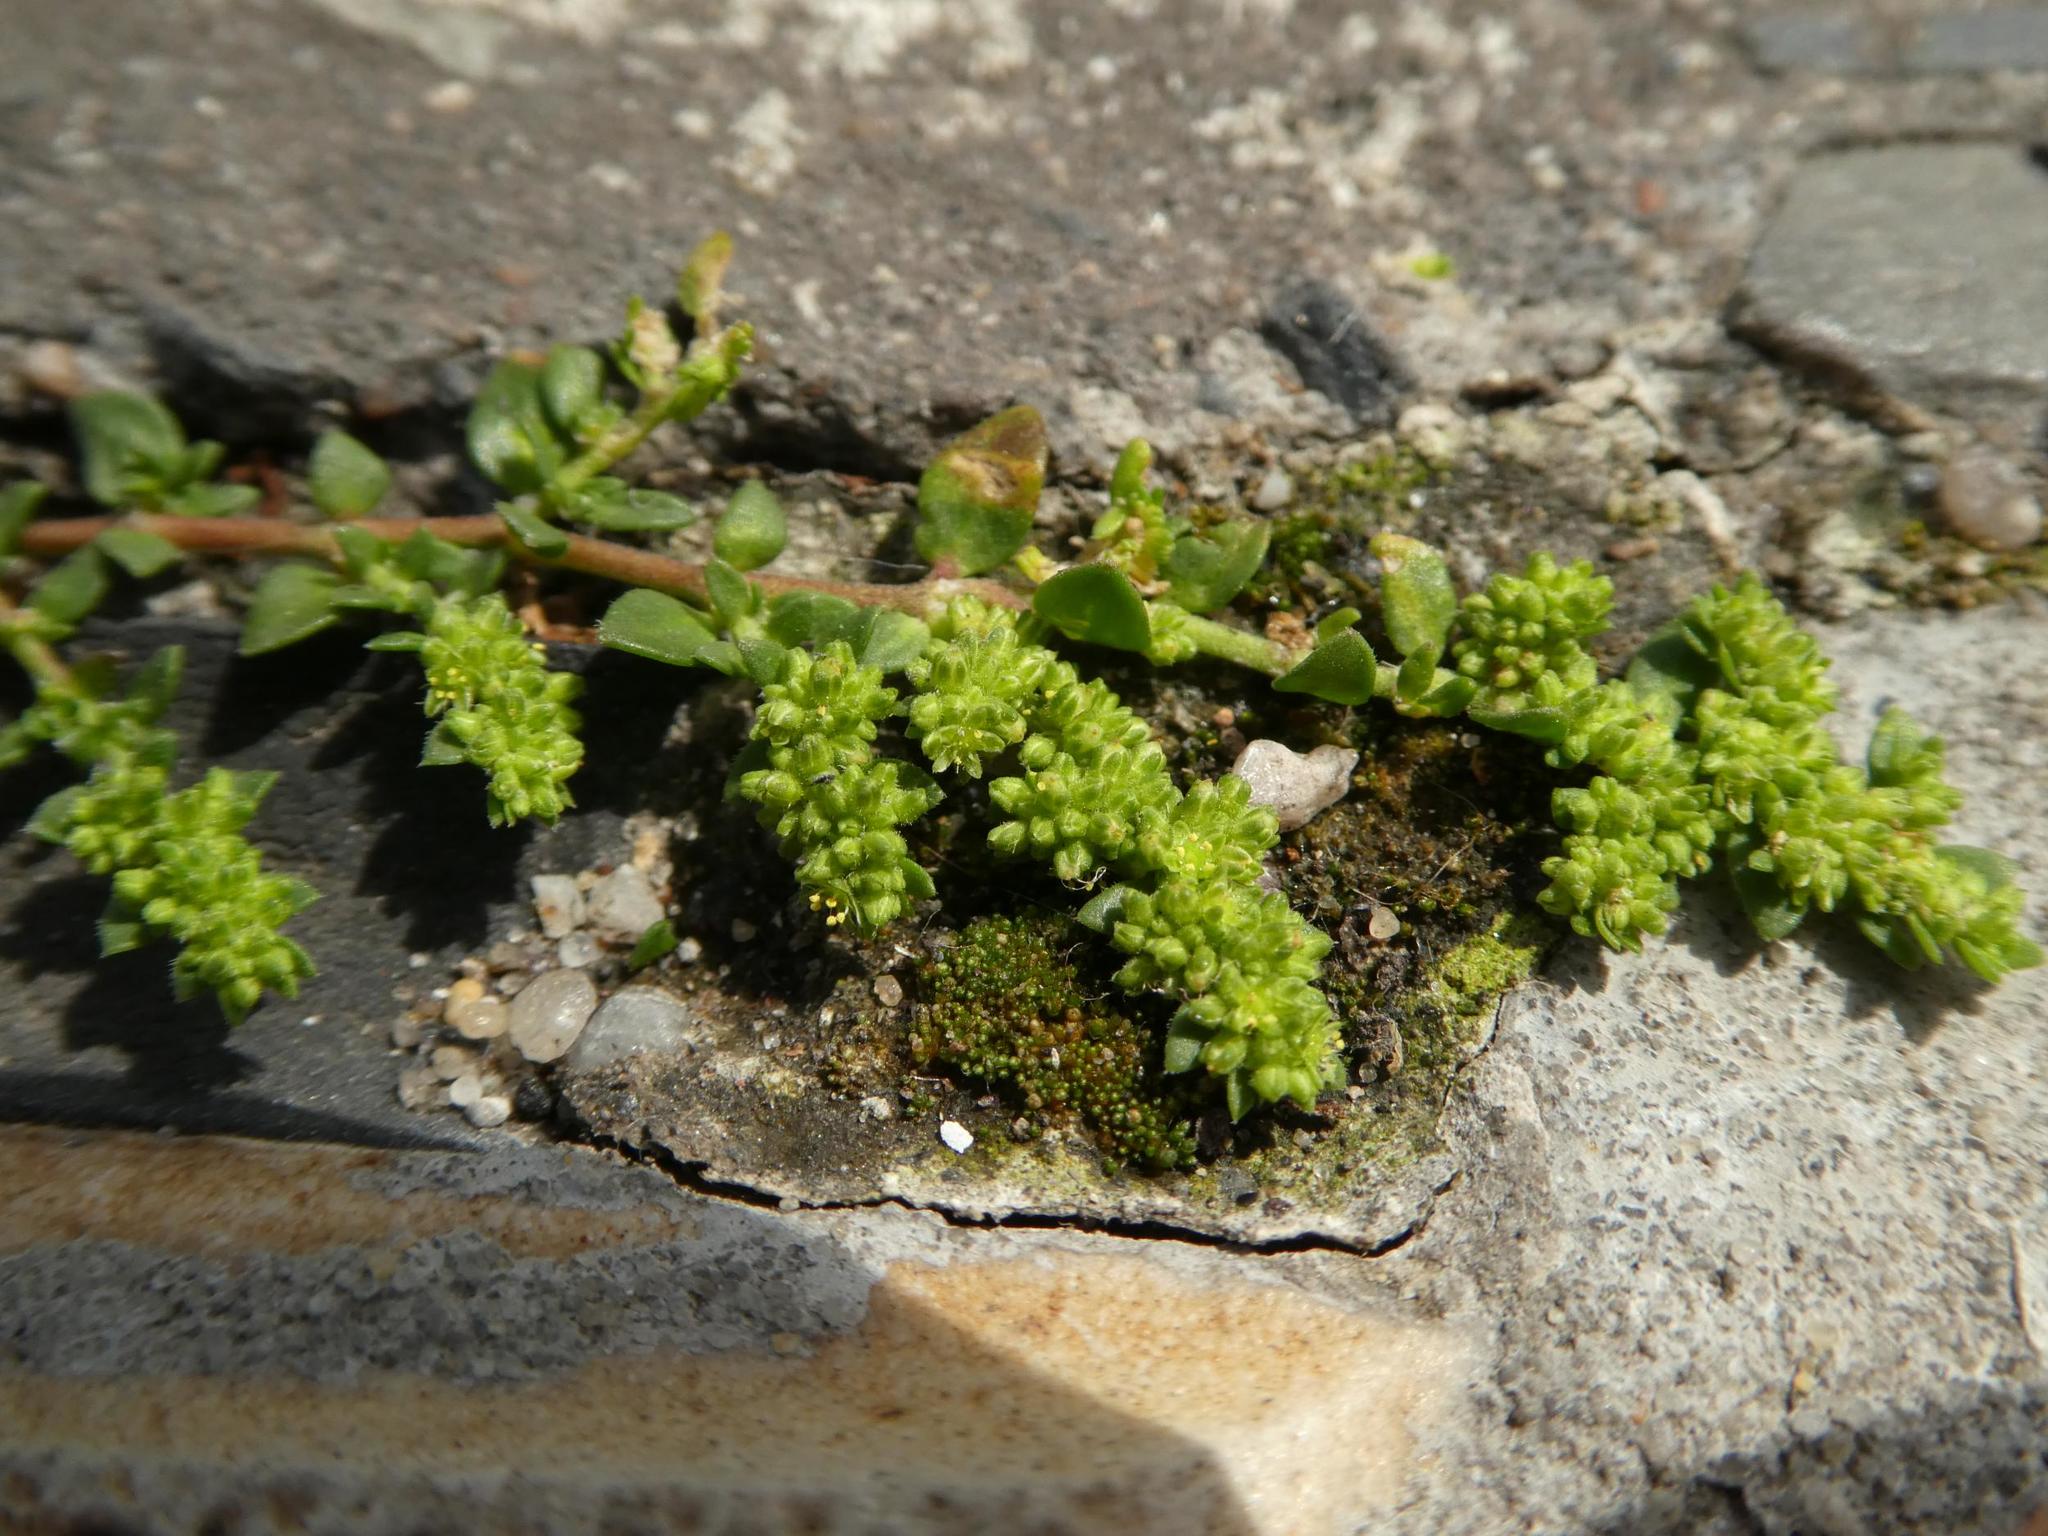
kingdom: Plantae
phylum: Tracheophyta
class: Magnoliopsida
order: Caryophyllales
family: Caryophyllaceae
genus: Herniaria
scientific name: Herniaria glabra
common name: Smooth rupturewort
